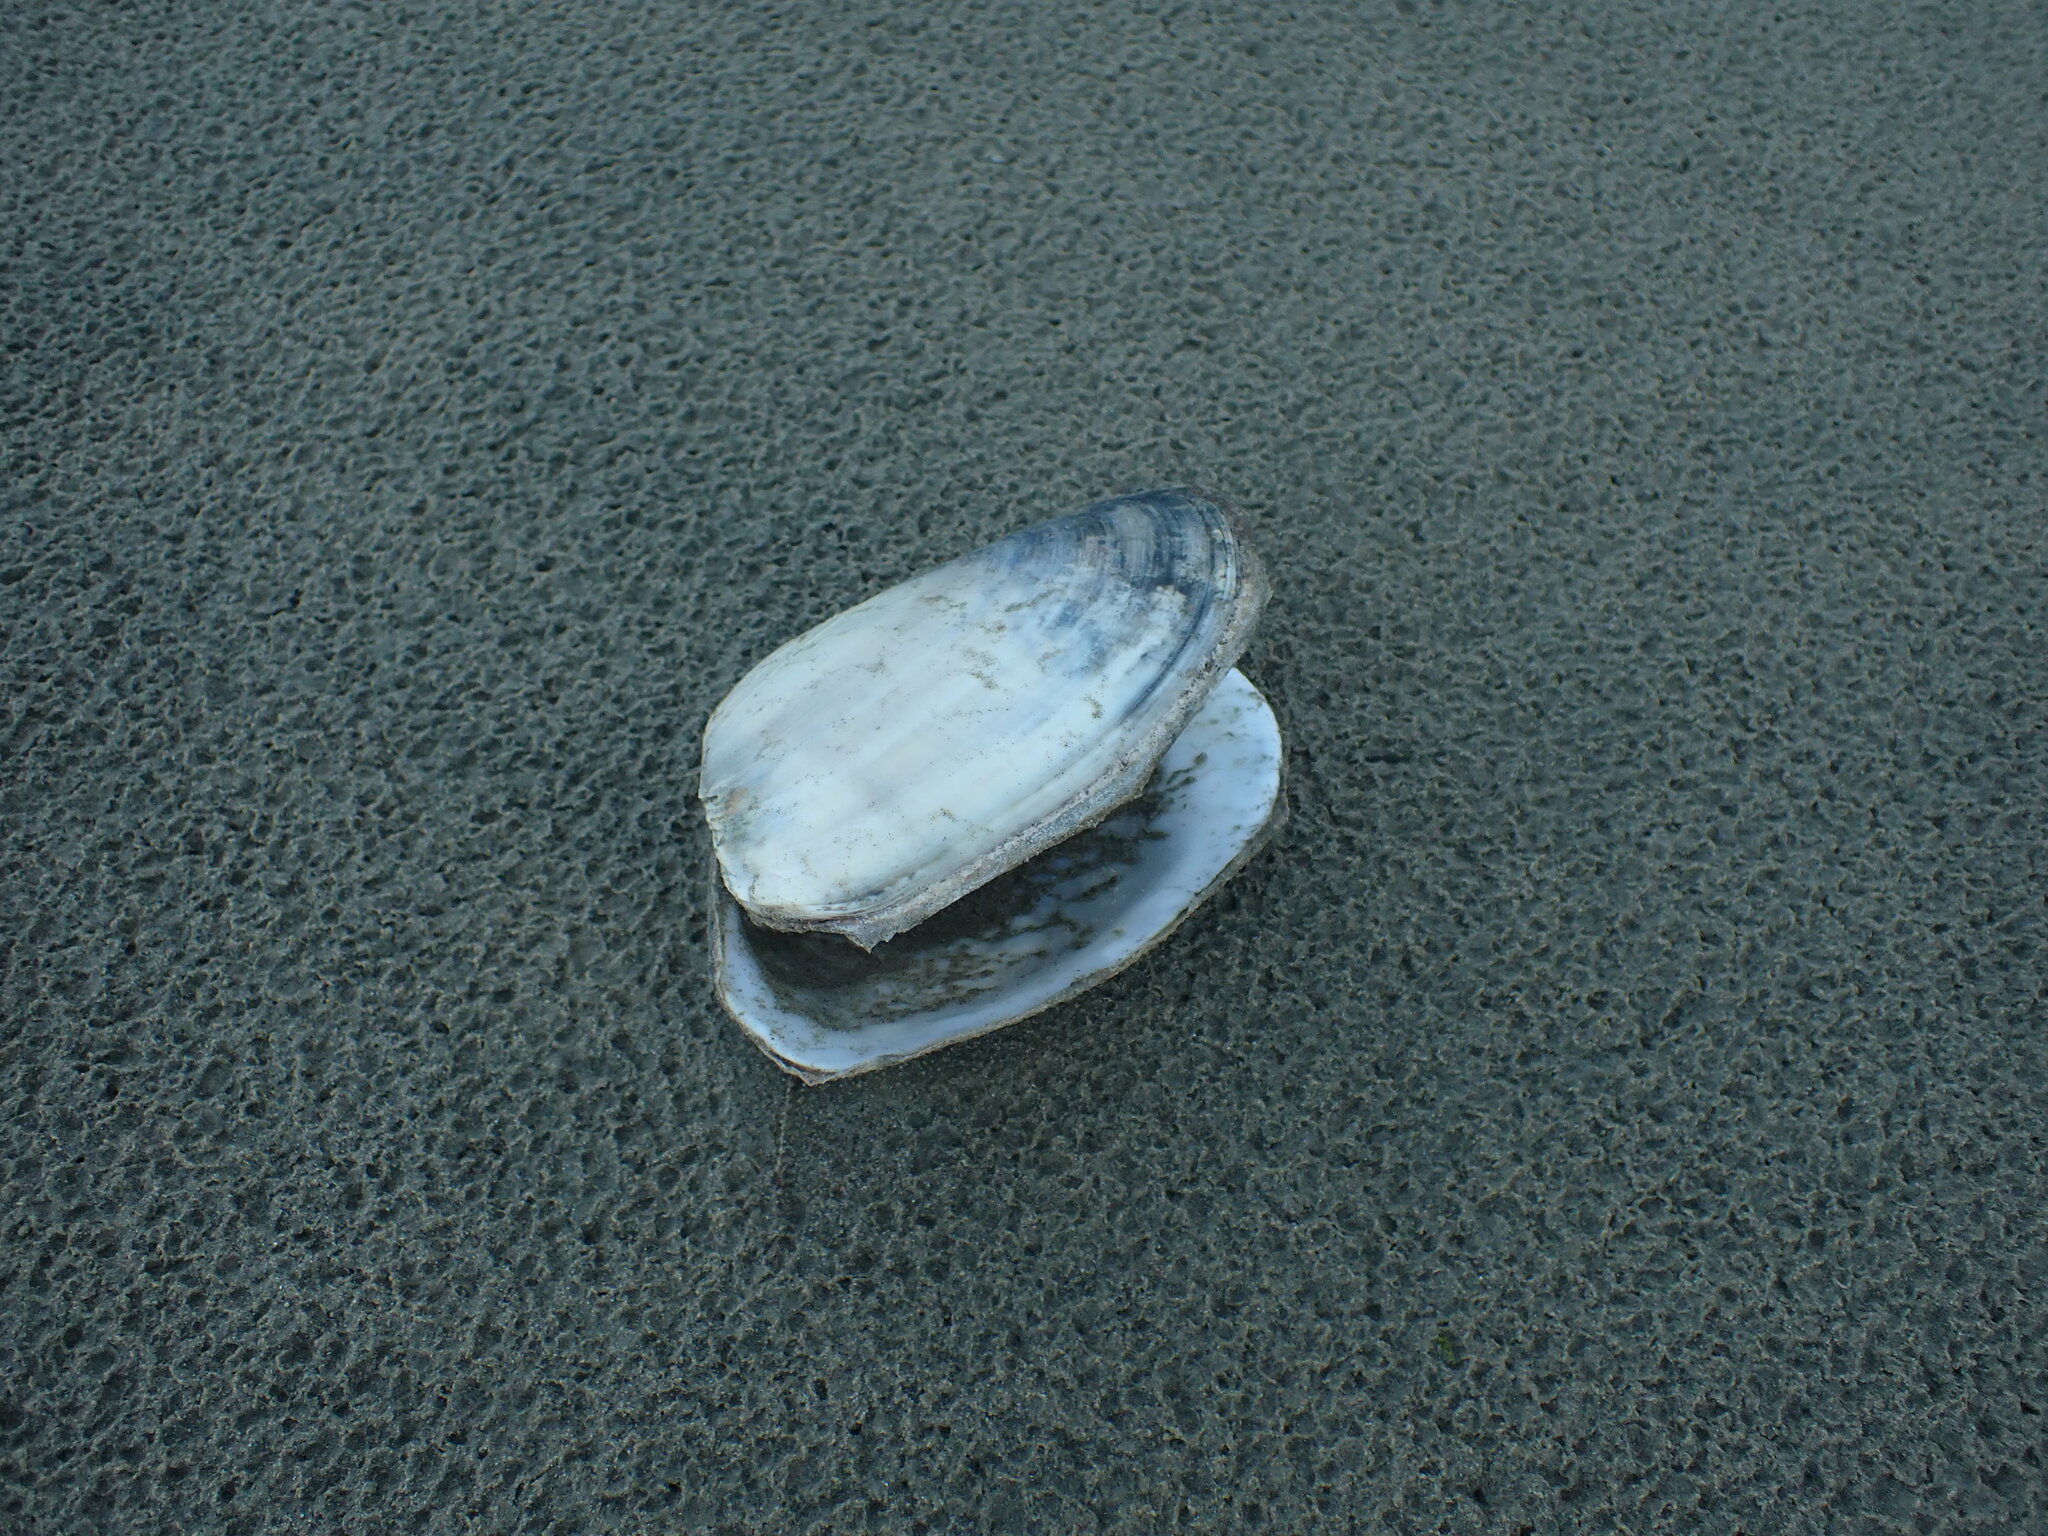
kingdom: Animalia
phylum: Mollusca
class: Bivalvia
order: Venerida
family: Mesodesmatidae
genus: Paphies
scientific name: Paphies ventricosa
